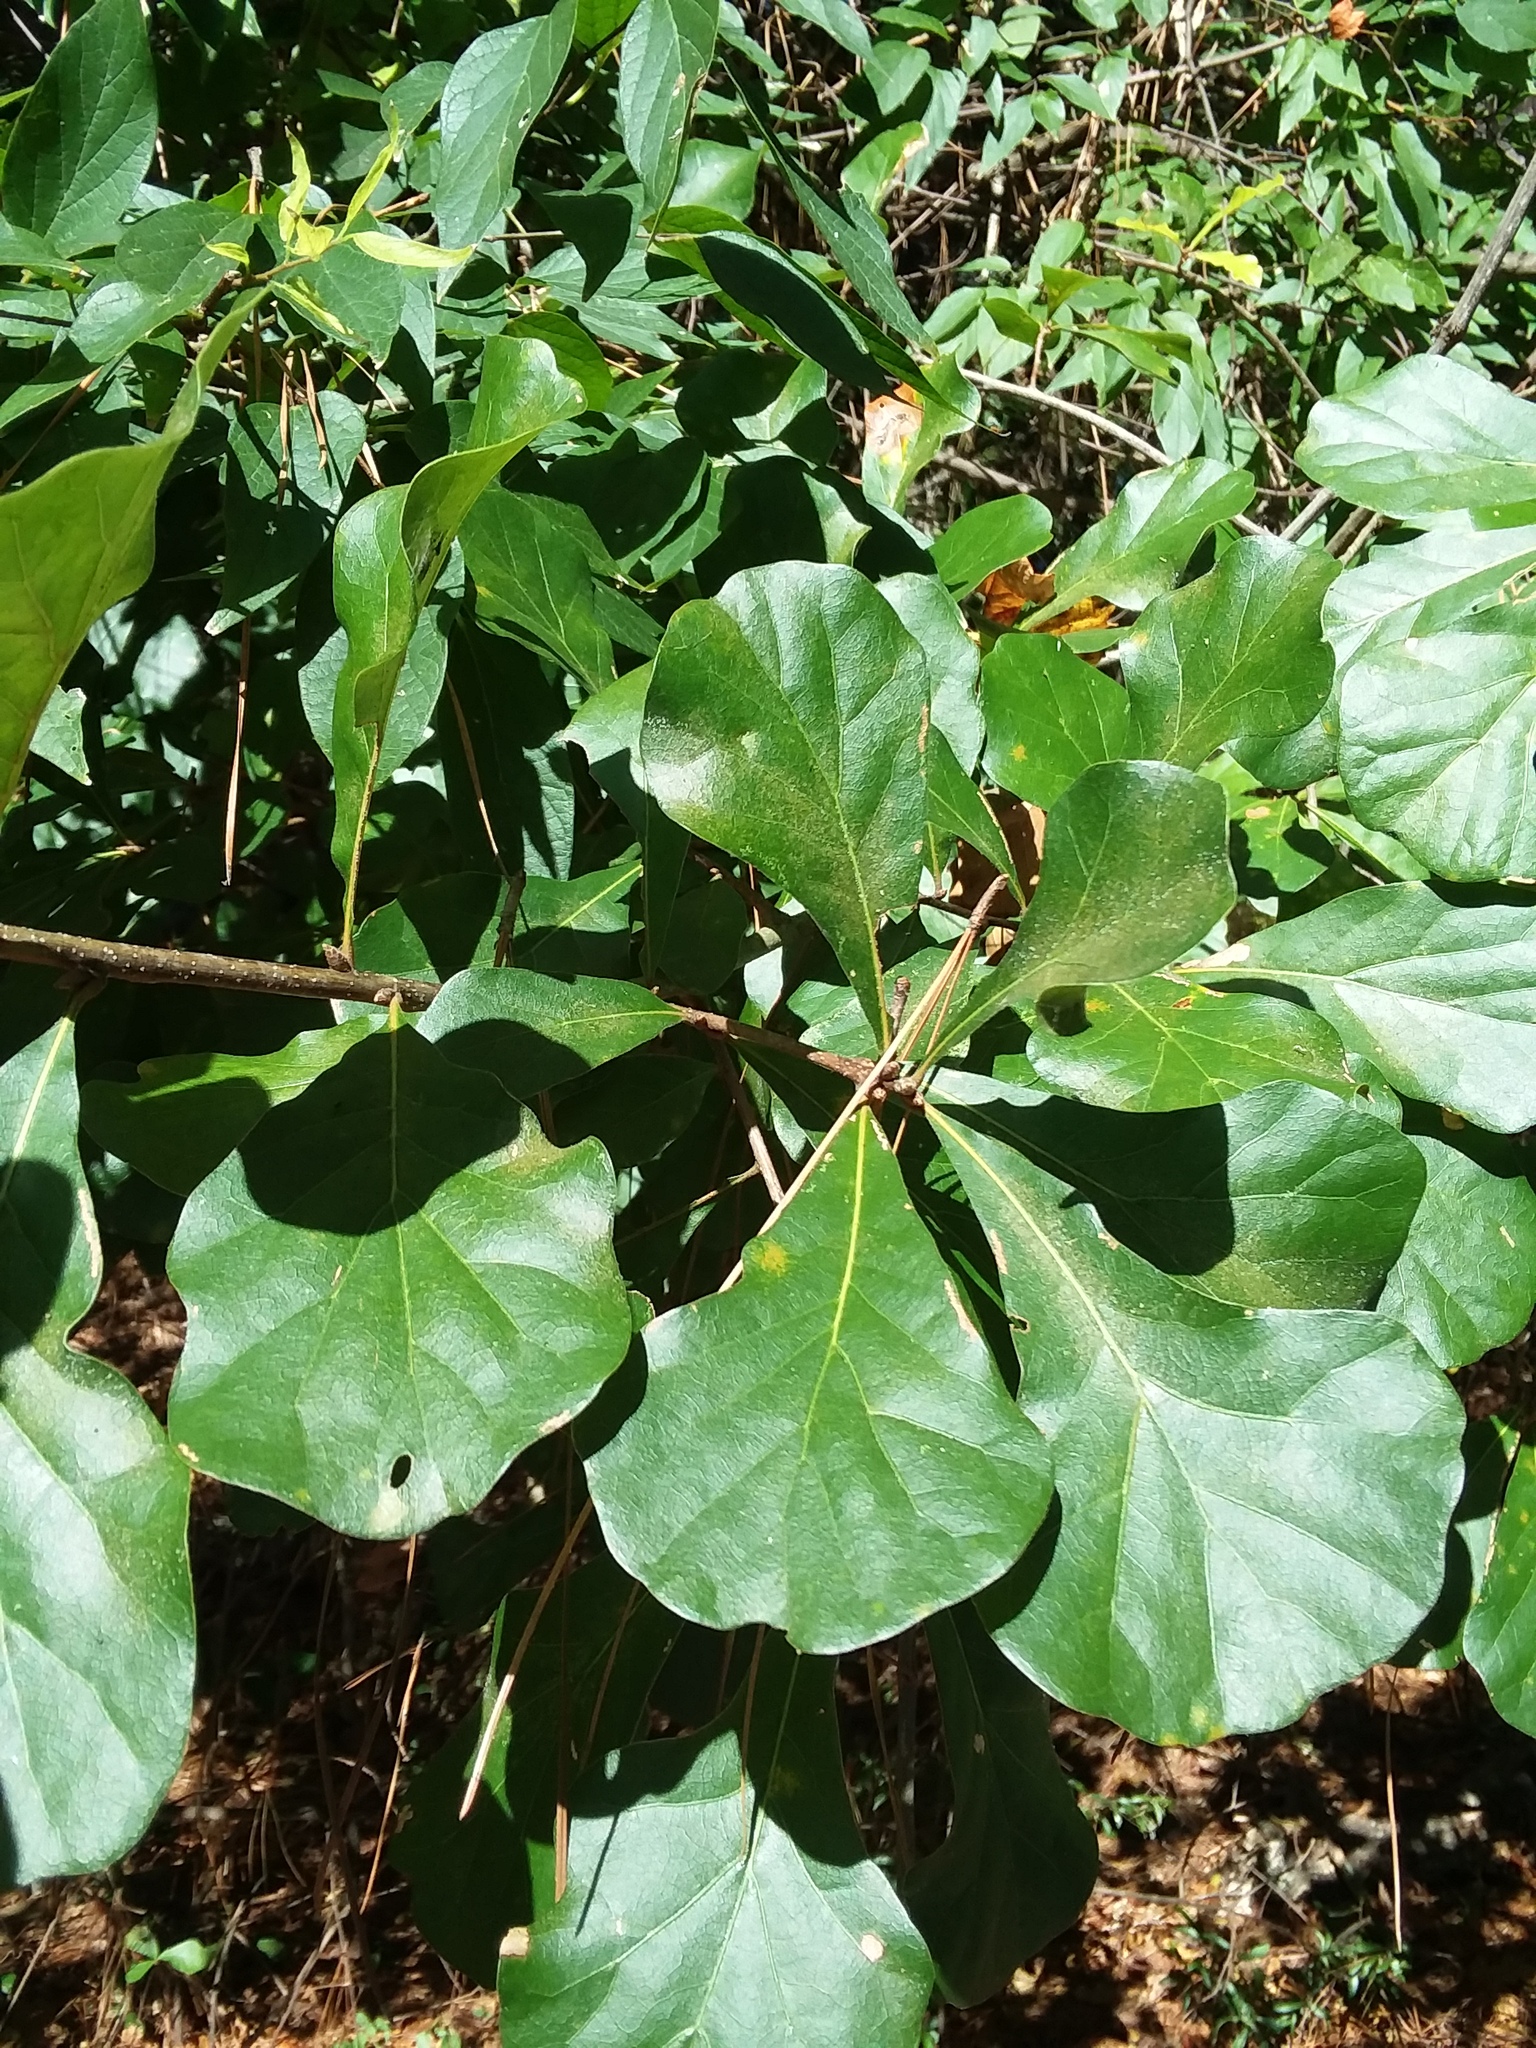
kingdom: Plantae
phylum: Tracheophyta
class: Magnoliopsida
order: Fagales
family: Fagaceae
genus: Quercus
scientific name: Quercus nigra
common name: Water oak
